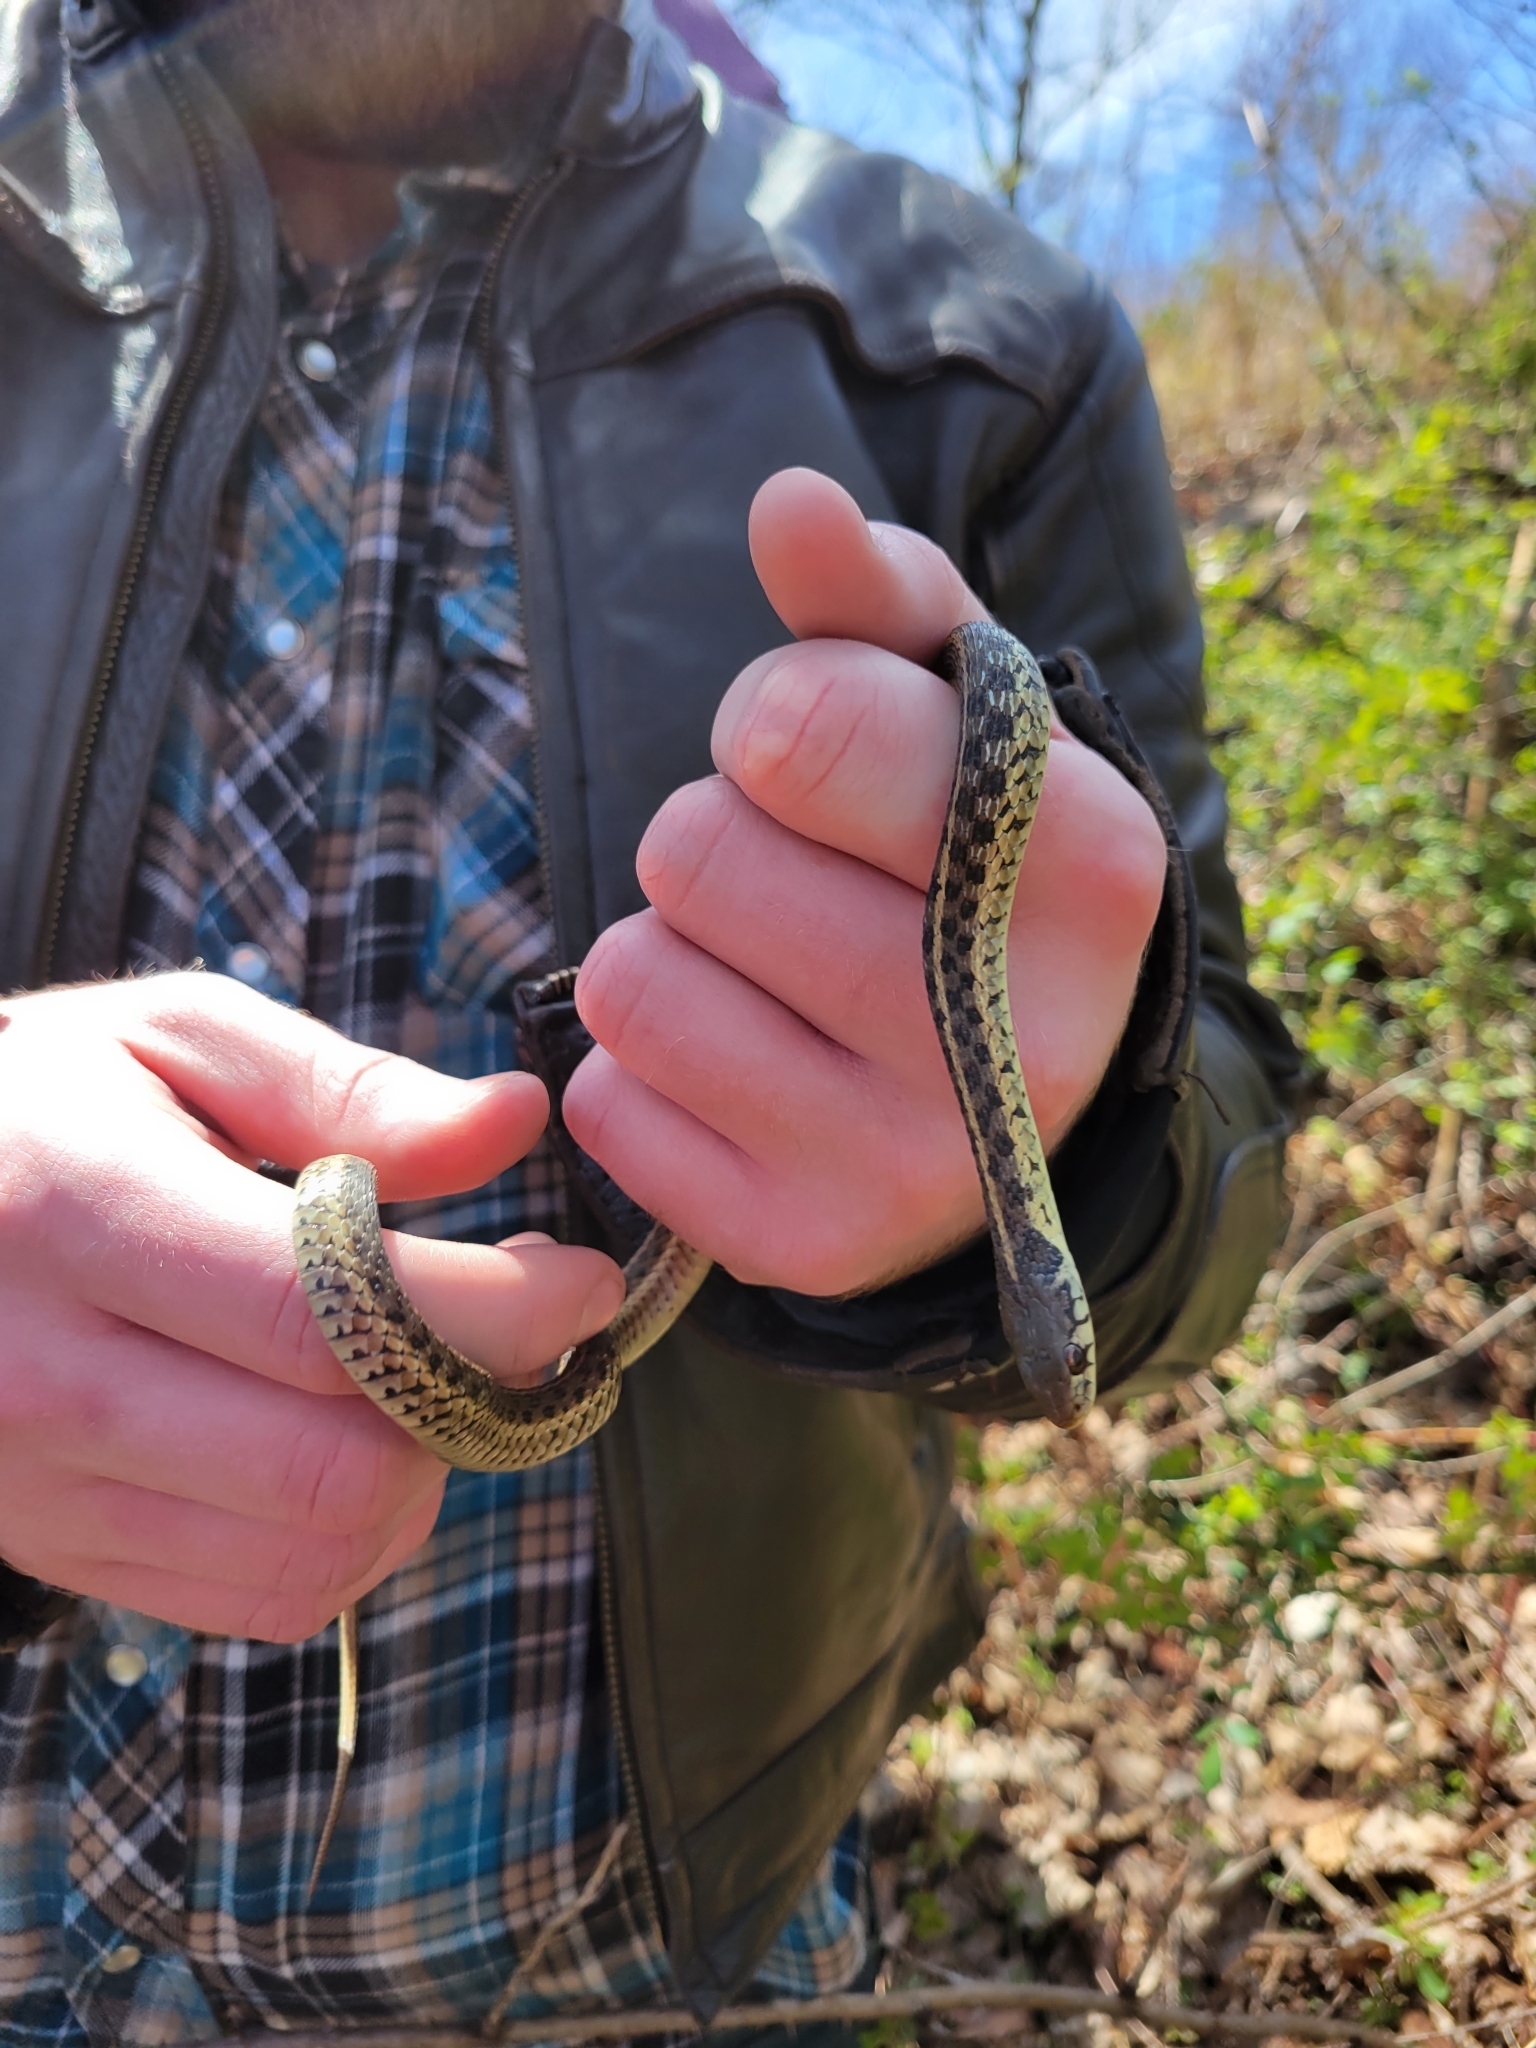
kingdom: Animalia
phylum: Chordata
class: Squamata
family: Colubridae
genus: Thamnophis
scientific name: Thamnophis sirtalis
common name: Common garter snake
